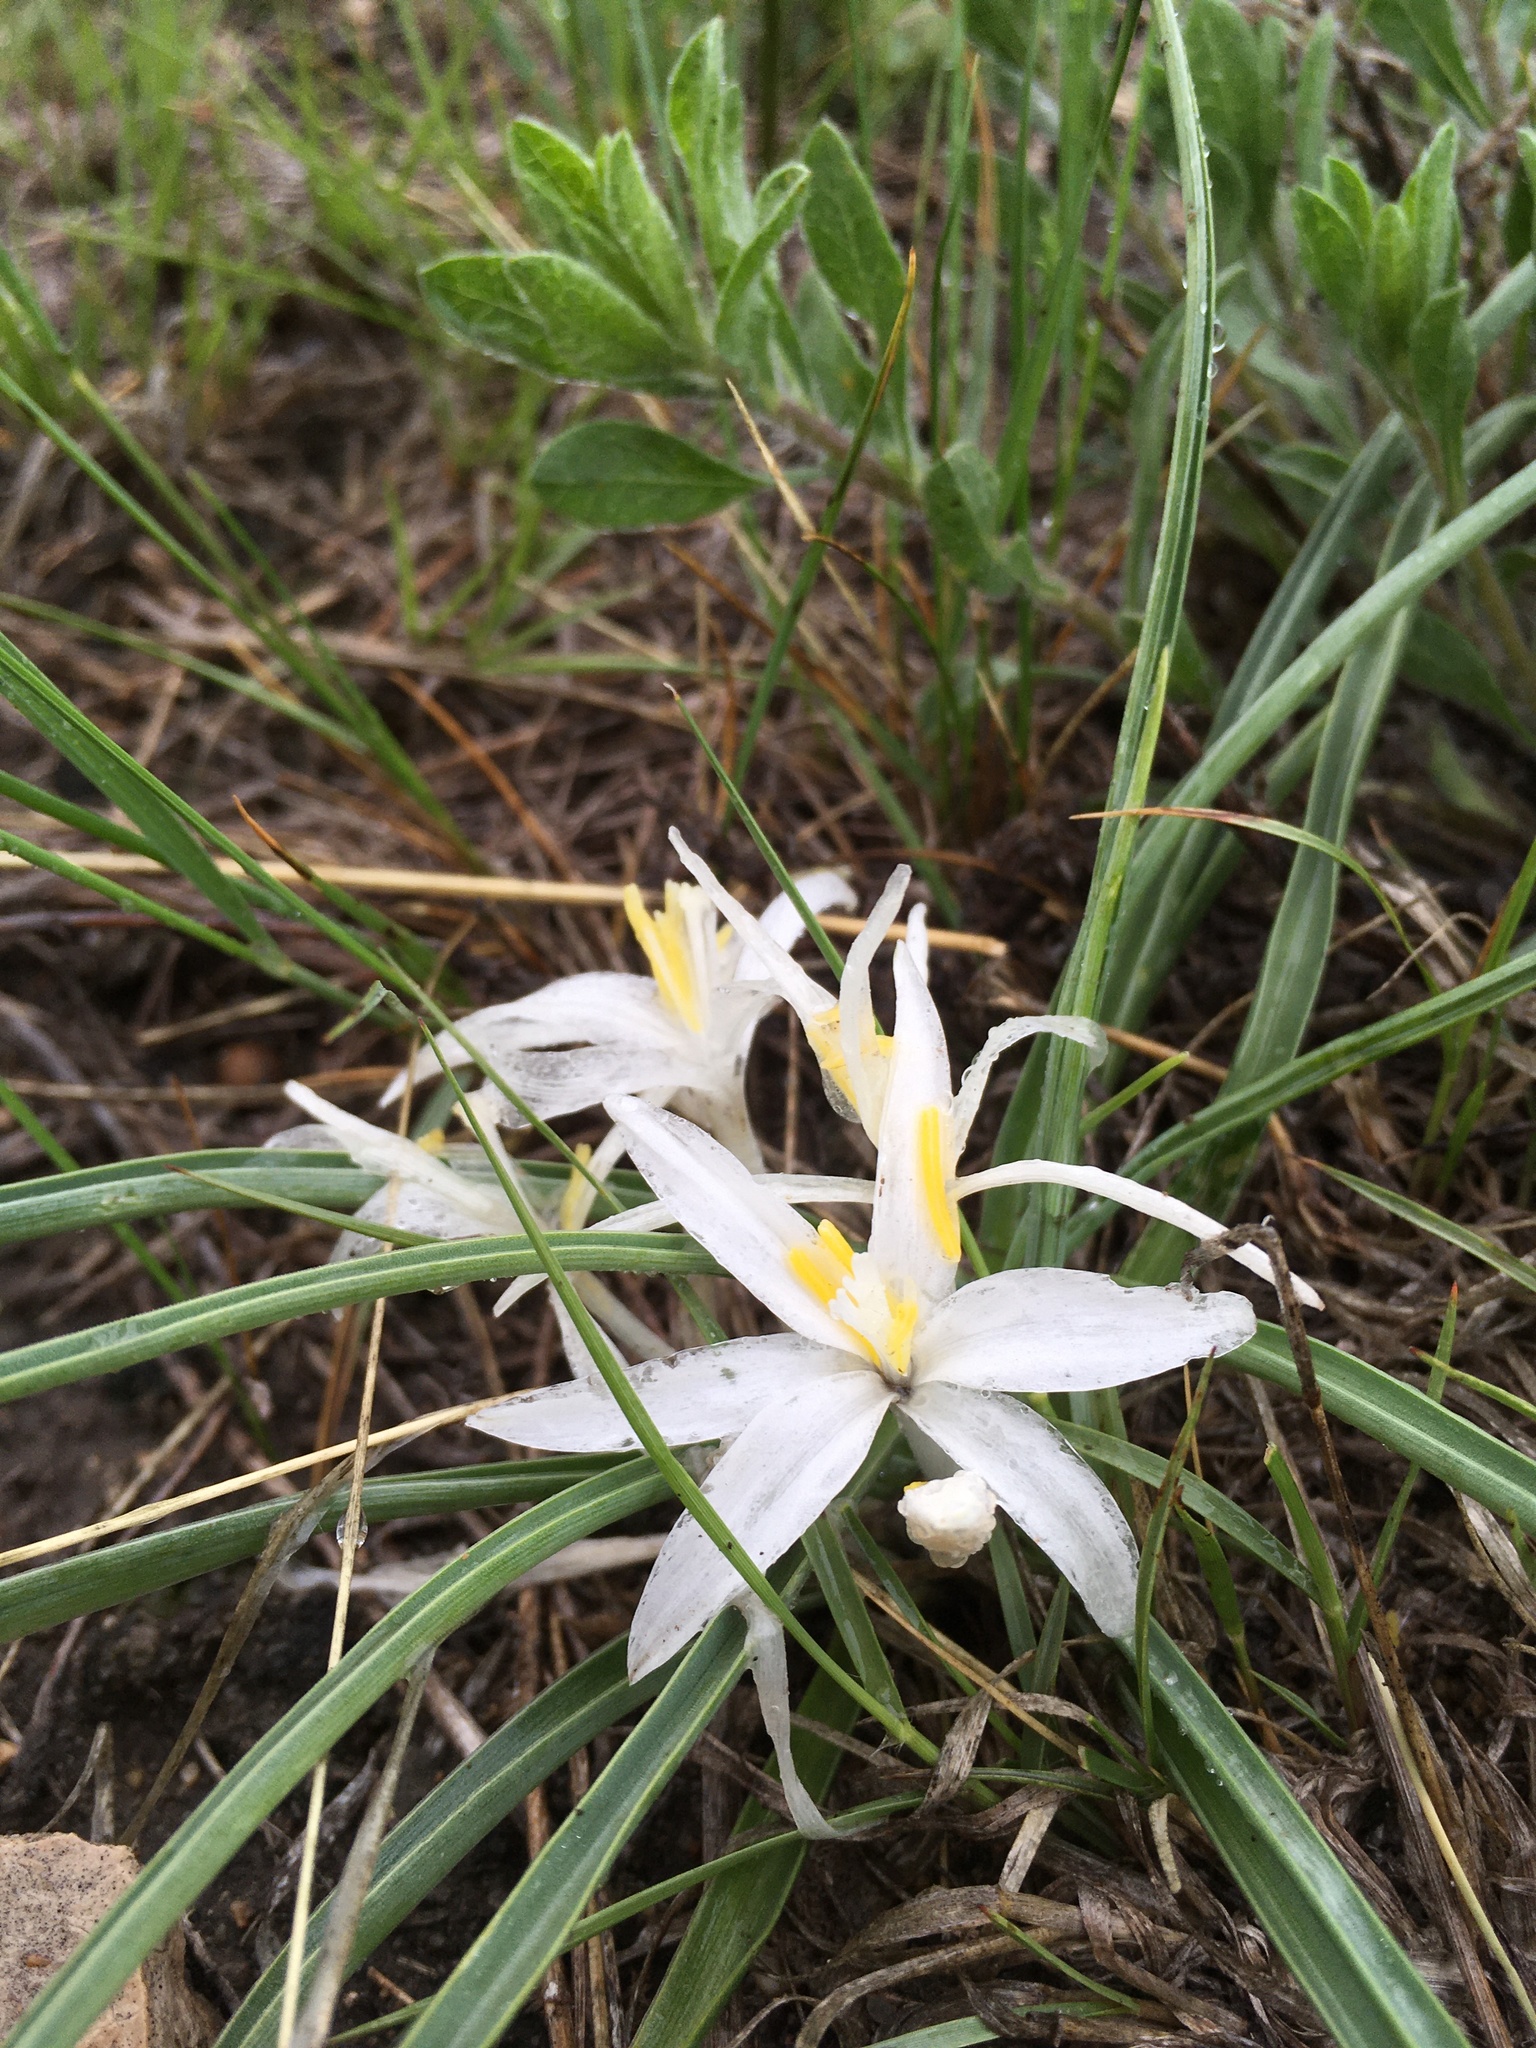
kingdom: Plantae
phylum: Tracheophyta
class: Liliopsida
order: Asparagales
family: Asparagaceae
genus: Leucocrinum
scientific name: Leucocrinum montanum
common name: Mountain-lily
